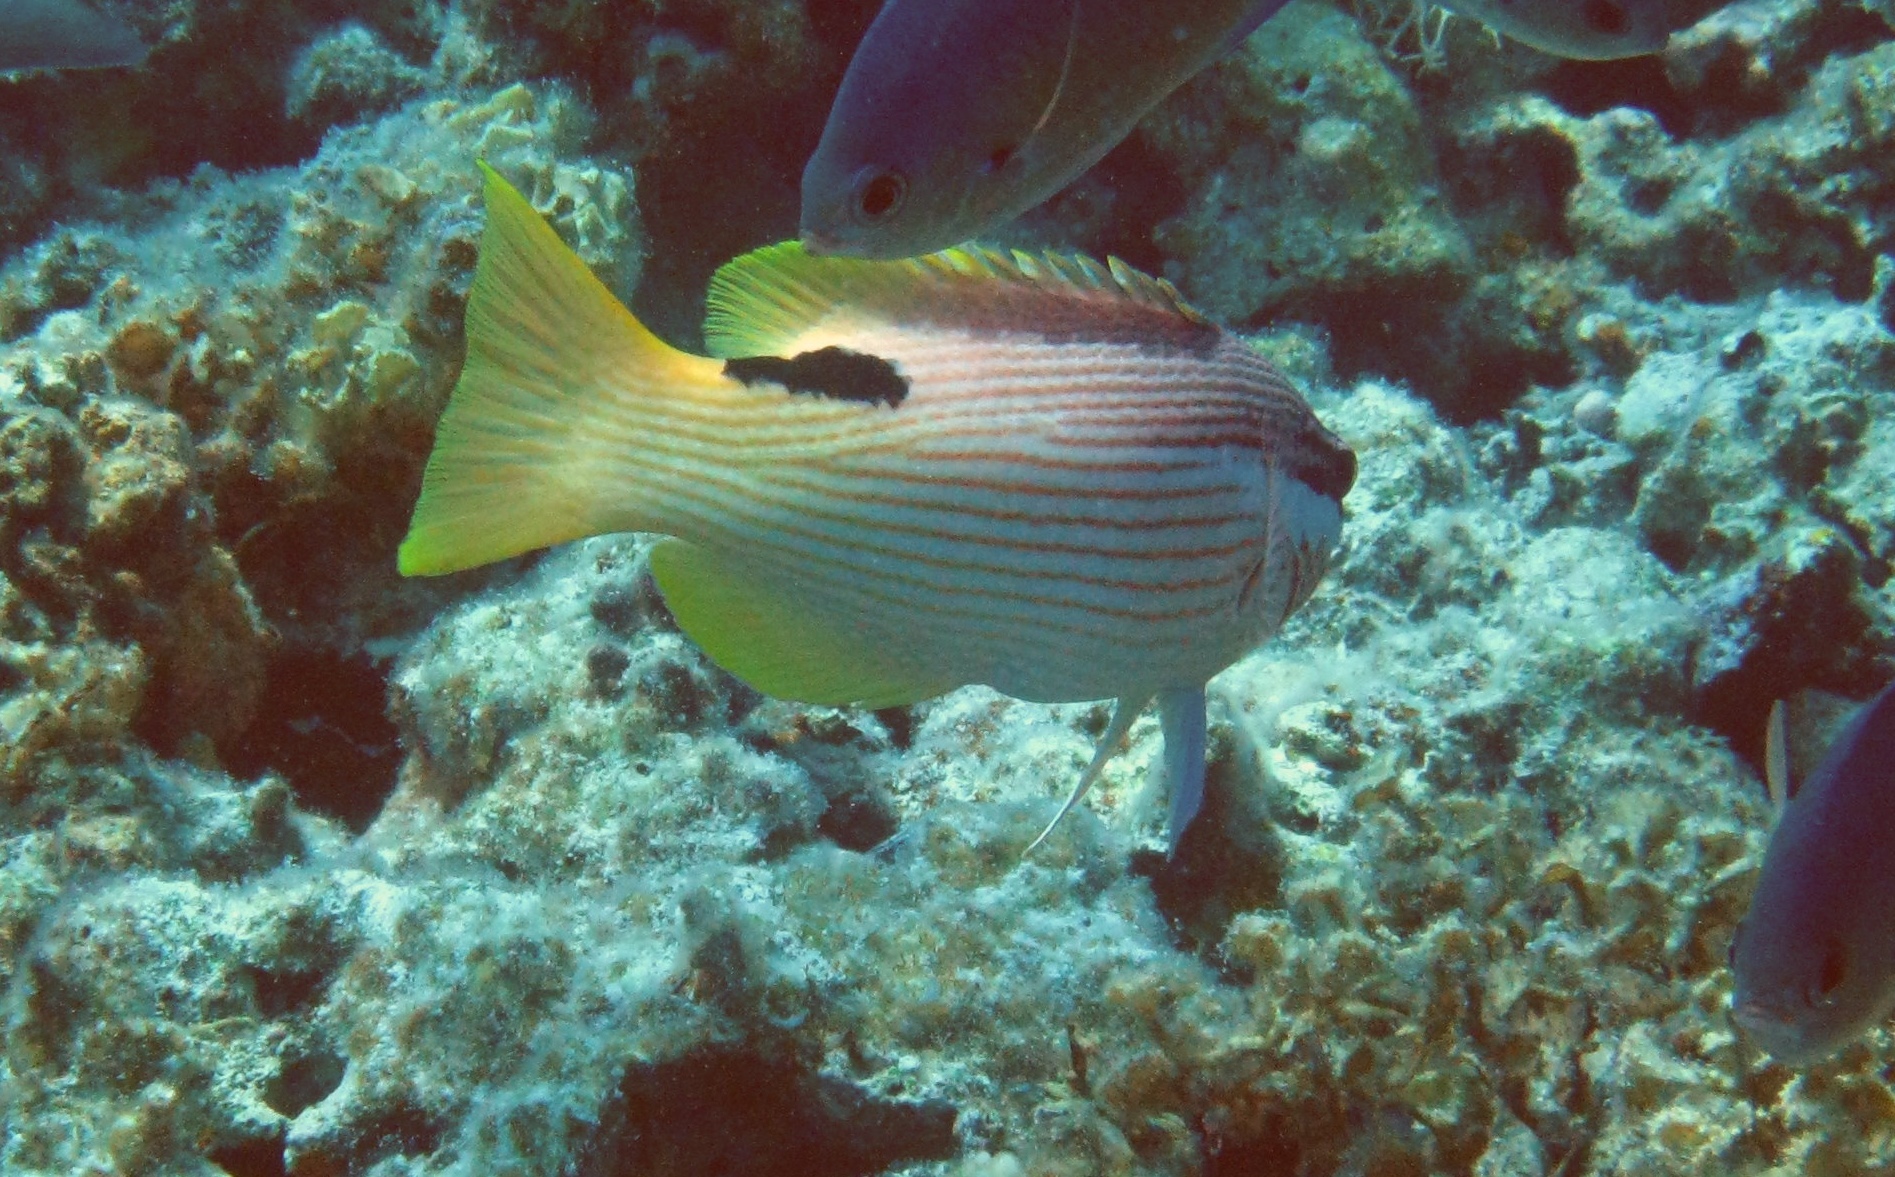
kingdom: Animalia
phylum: Chordata
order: Perciformes
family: Labridae
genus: Bodianus
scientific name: Bodianus albotaeniatus
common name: Hawaiian hogfish
